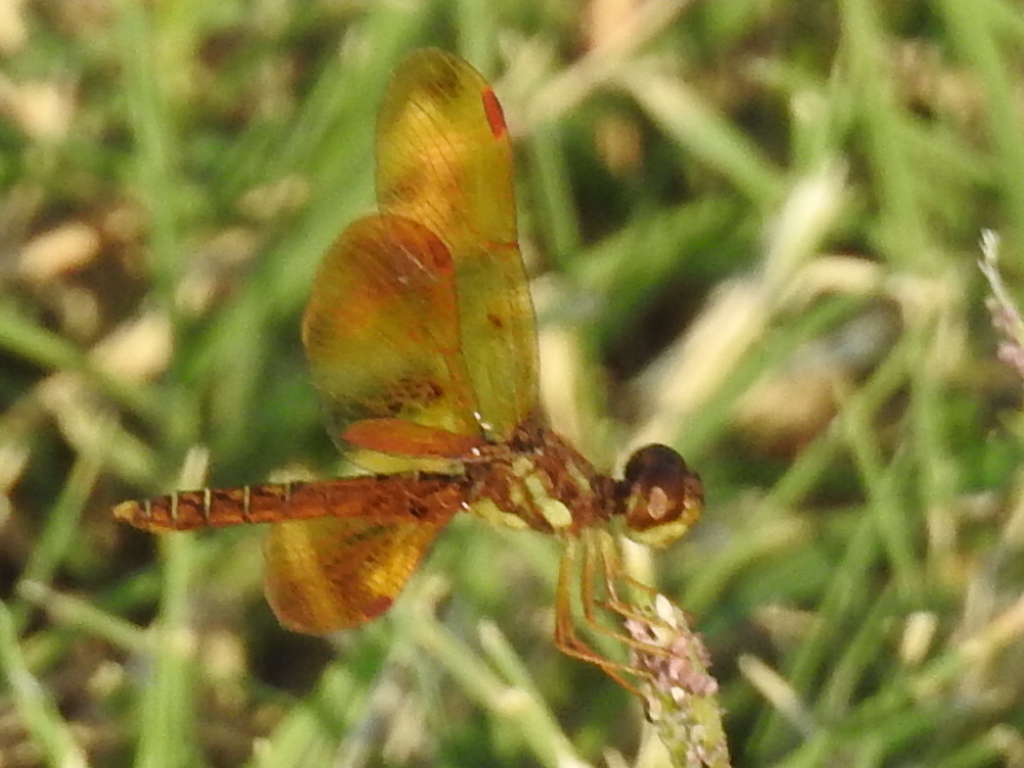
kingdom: Animalia
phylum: Arthropoda
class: Insecta
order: Odonata
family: Libellulidae
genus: Perithemis
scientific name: Perithemis tenera
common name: Eastern amberwing
